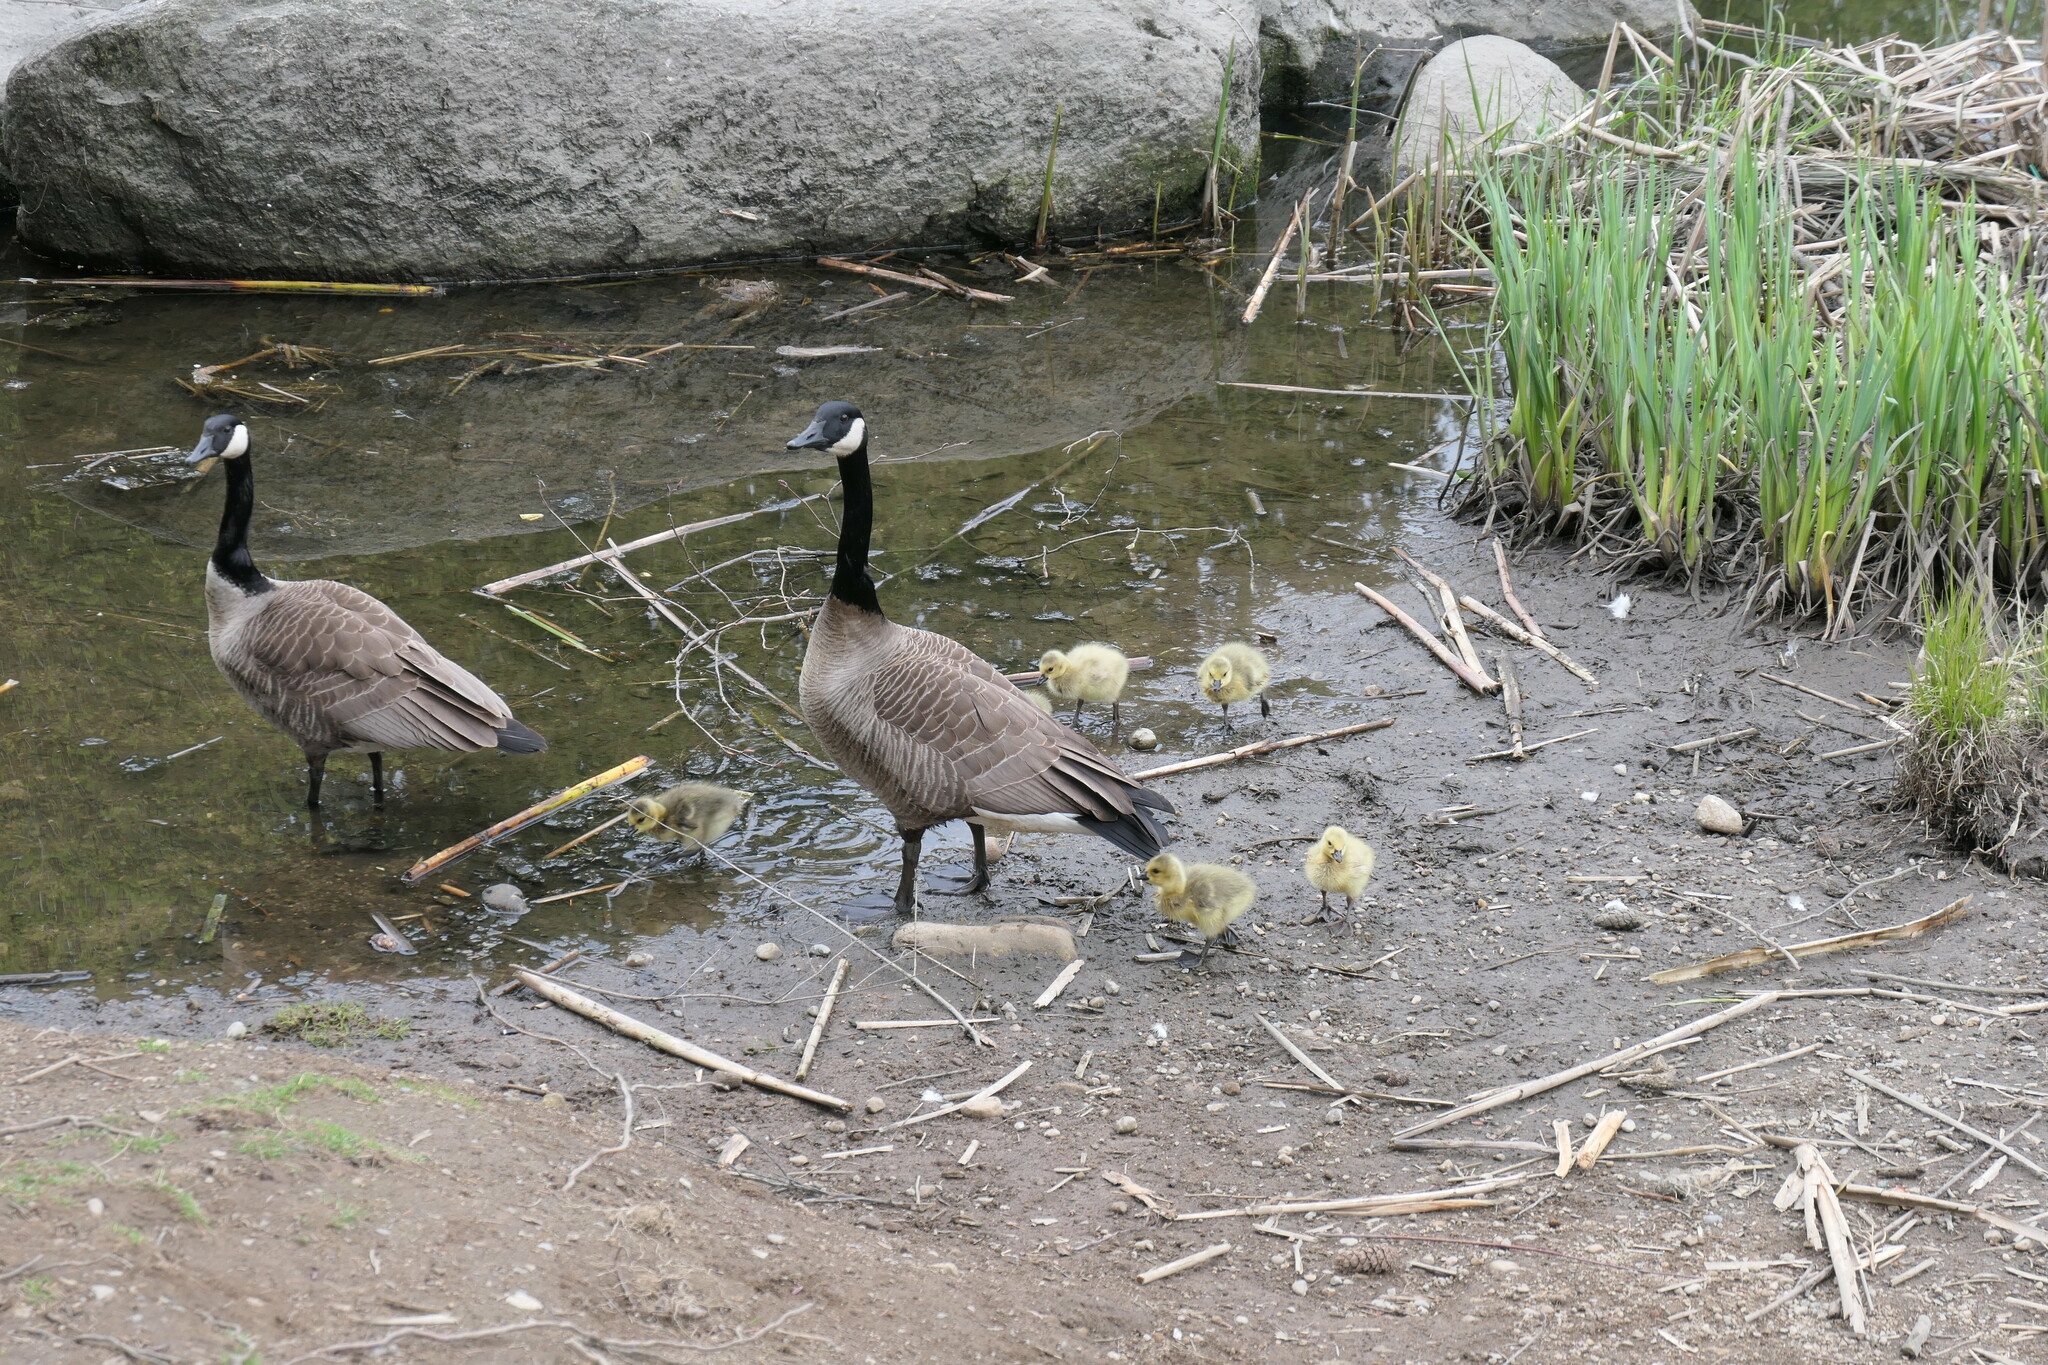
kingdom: Animalia
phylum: Chordata
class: Aves
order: Anseriformes
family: Anatidae
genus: Branta
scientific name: Branta canadensis
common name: Canada goose
